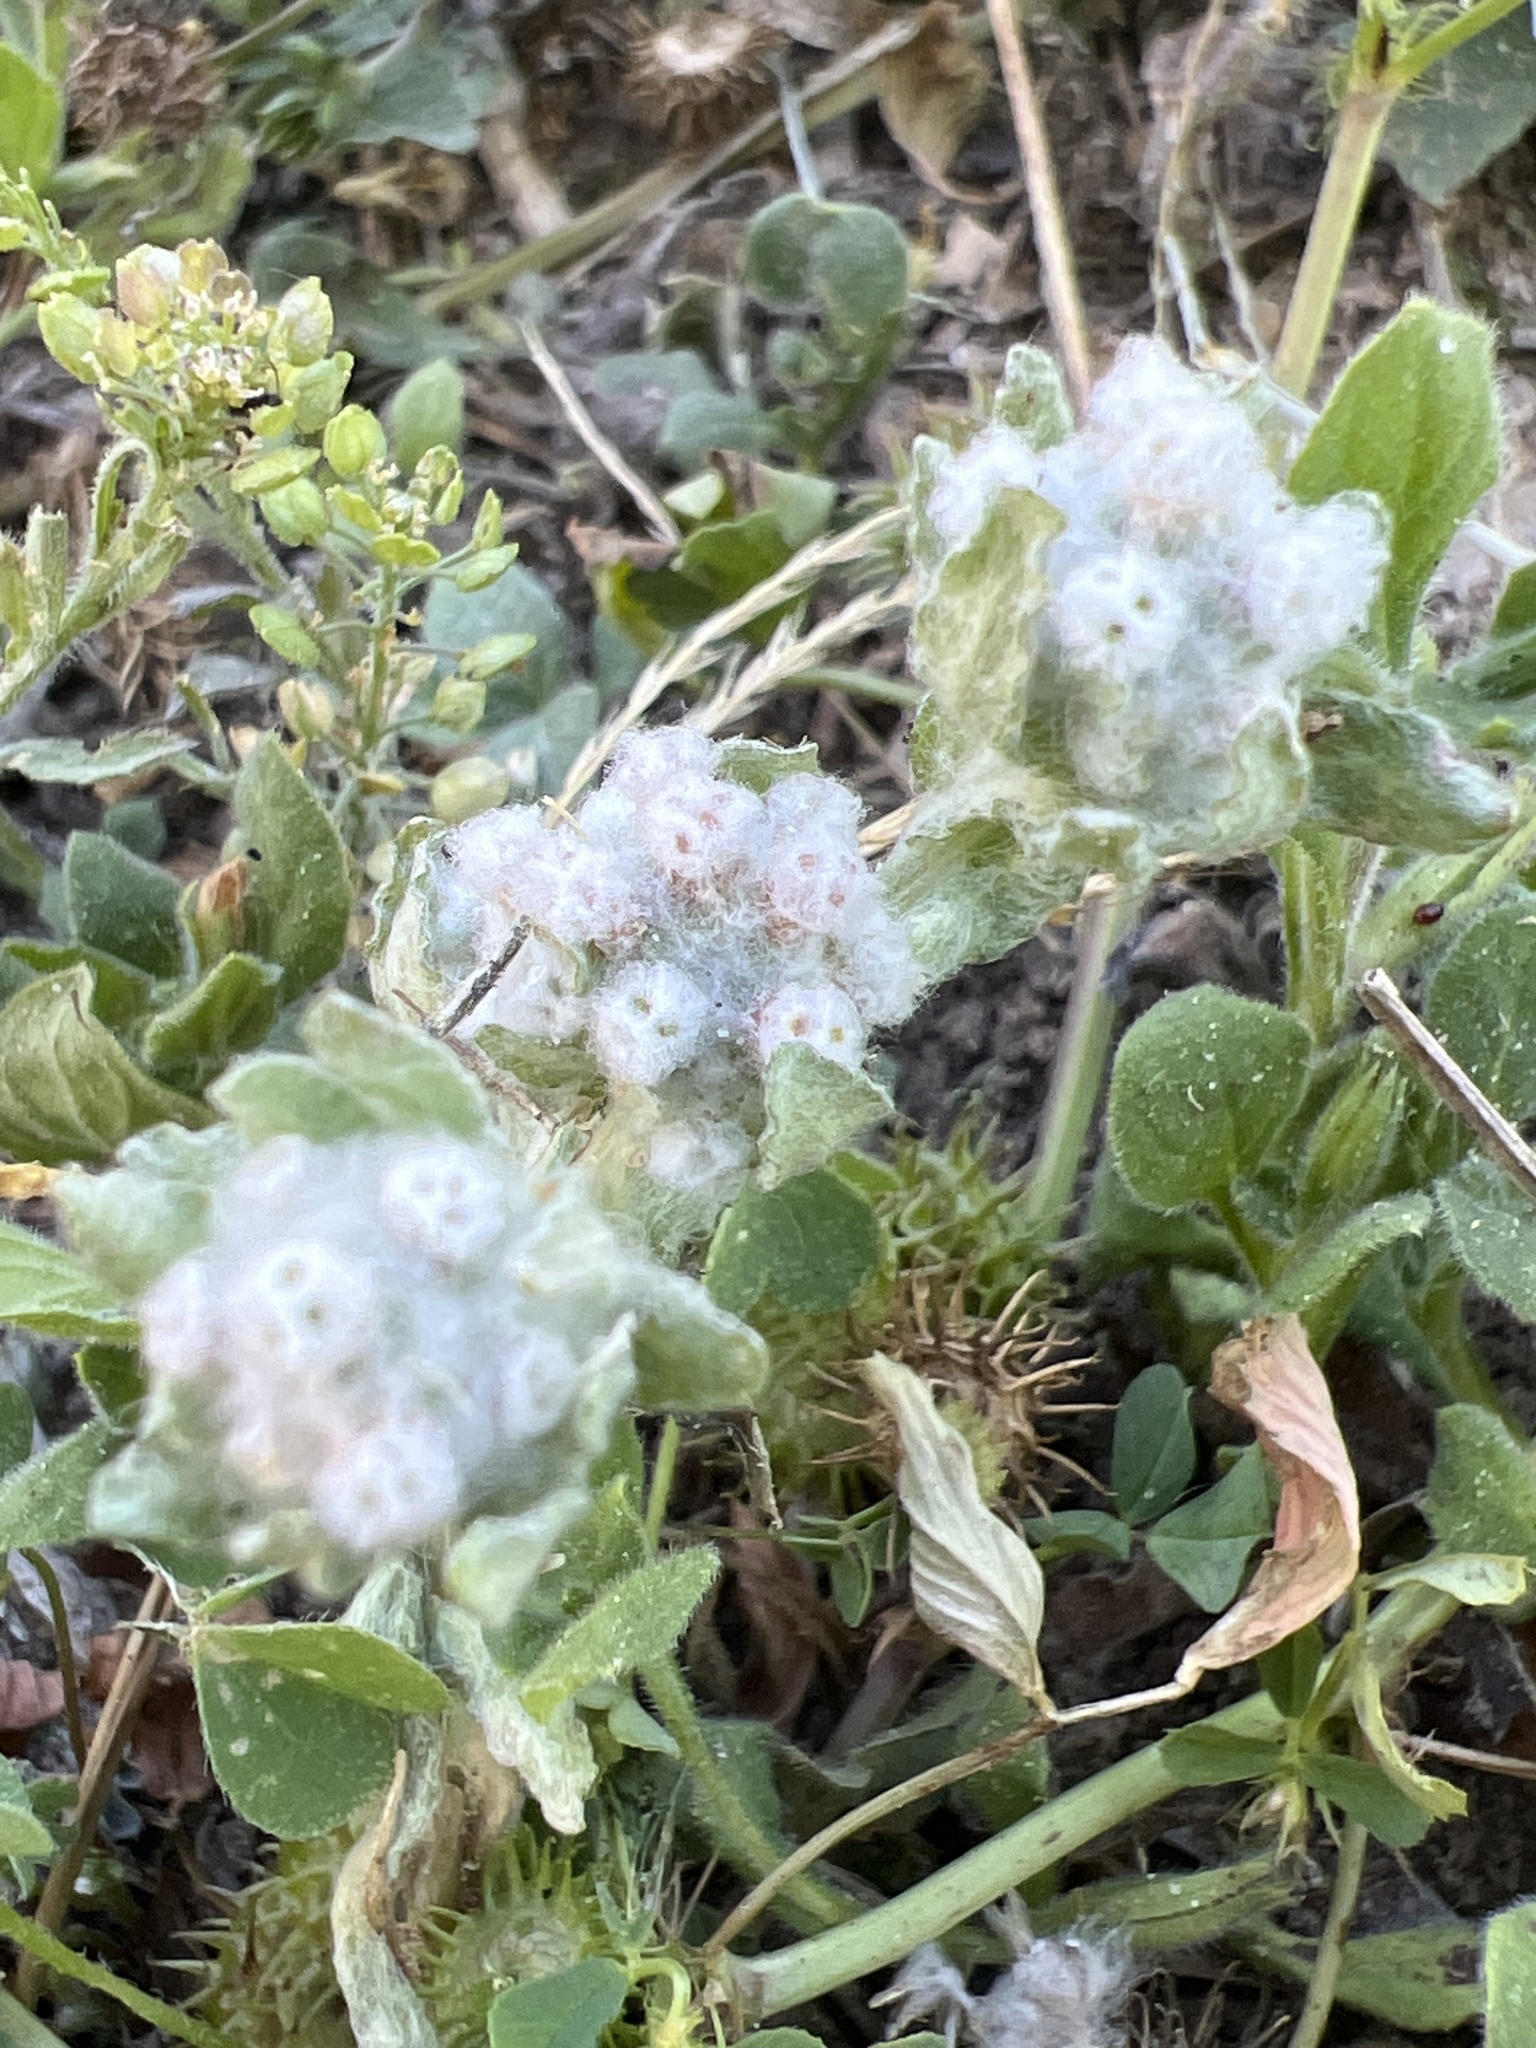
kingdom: Plantae
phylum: Tracheophyta
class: Magnoliopsida
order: Asterales
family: Asteraceae
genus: Diaperia
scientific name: Diaperia verna
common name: Many-stem rabbit-tobacco
